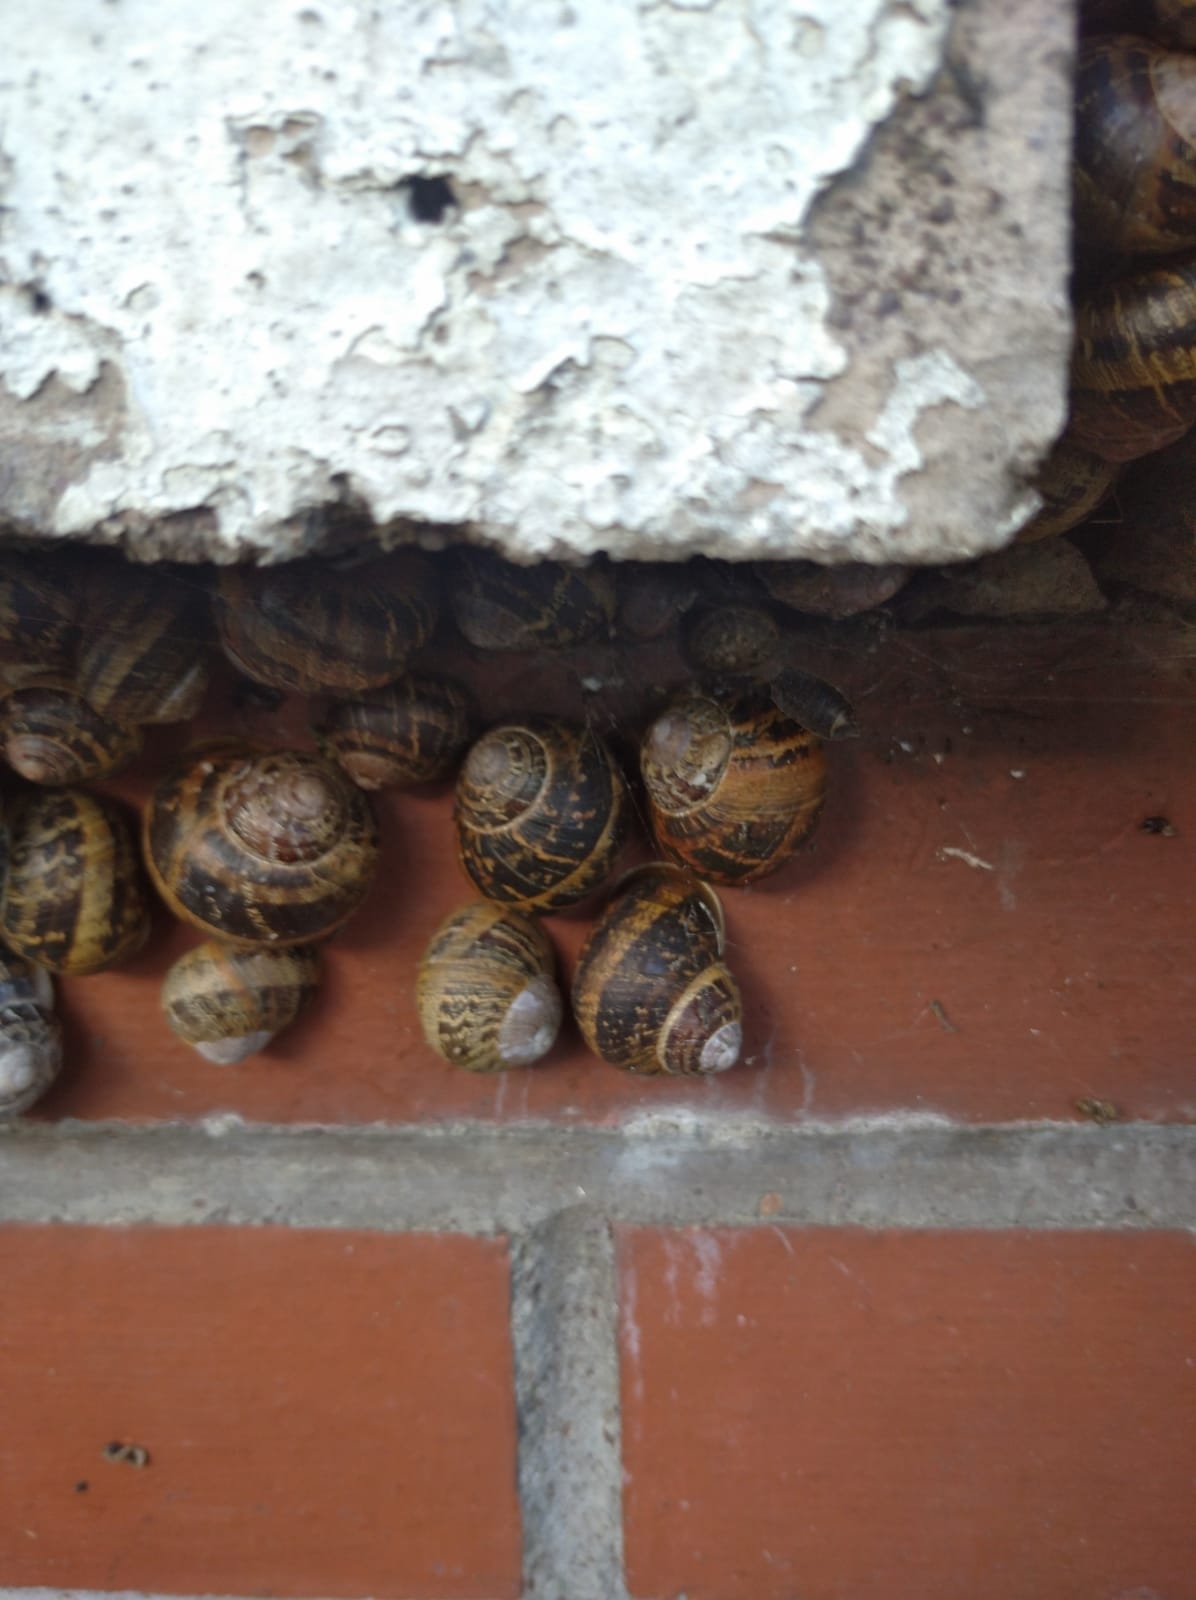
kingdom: Animalia
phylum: Mollusca
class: Gastropoda
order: Stylommatophora
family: Helicidae
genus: Cornu
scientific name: Cornu aspersum
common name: Brown garden snail
